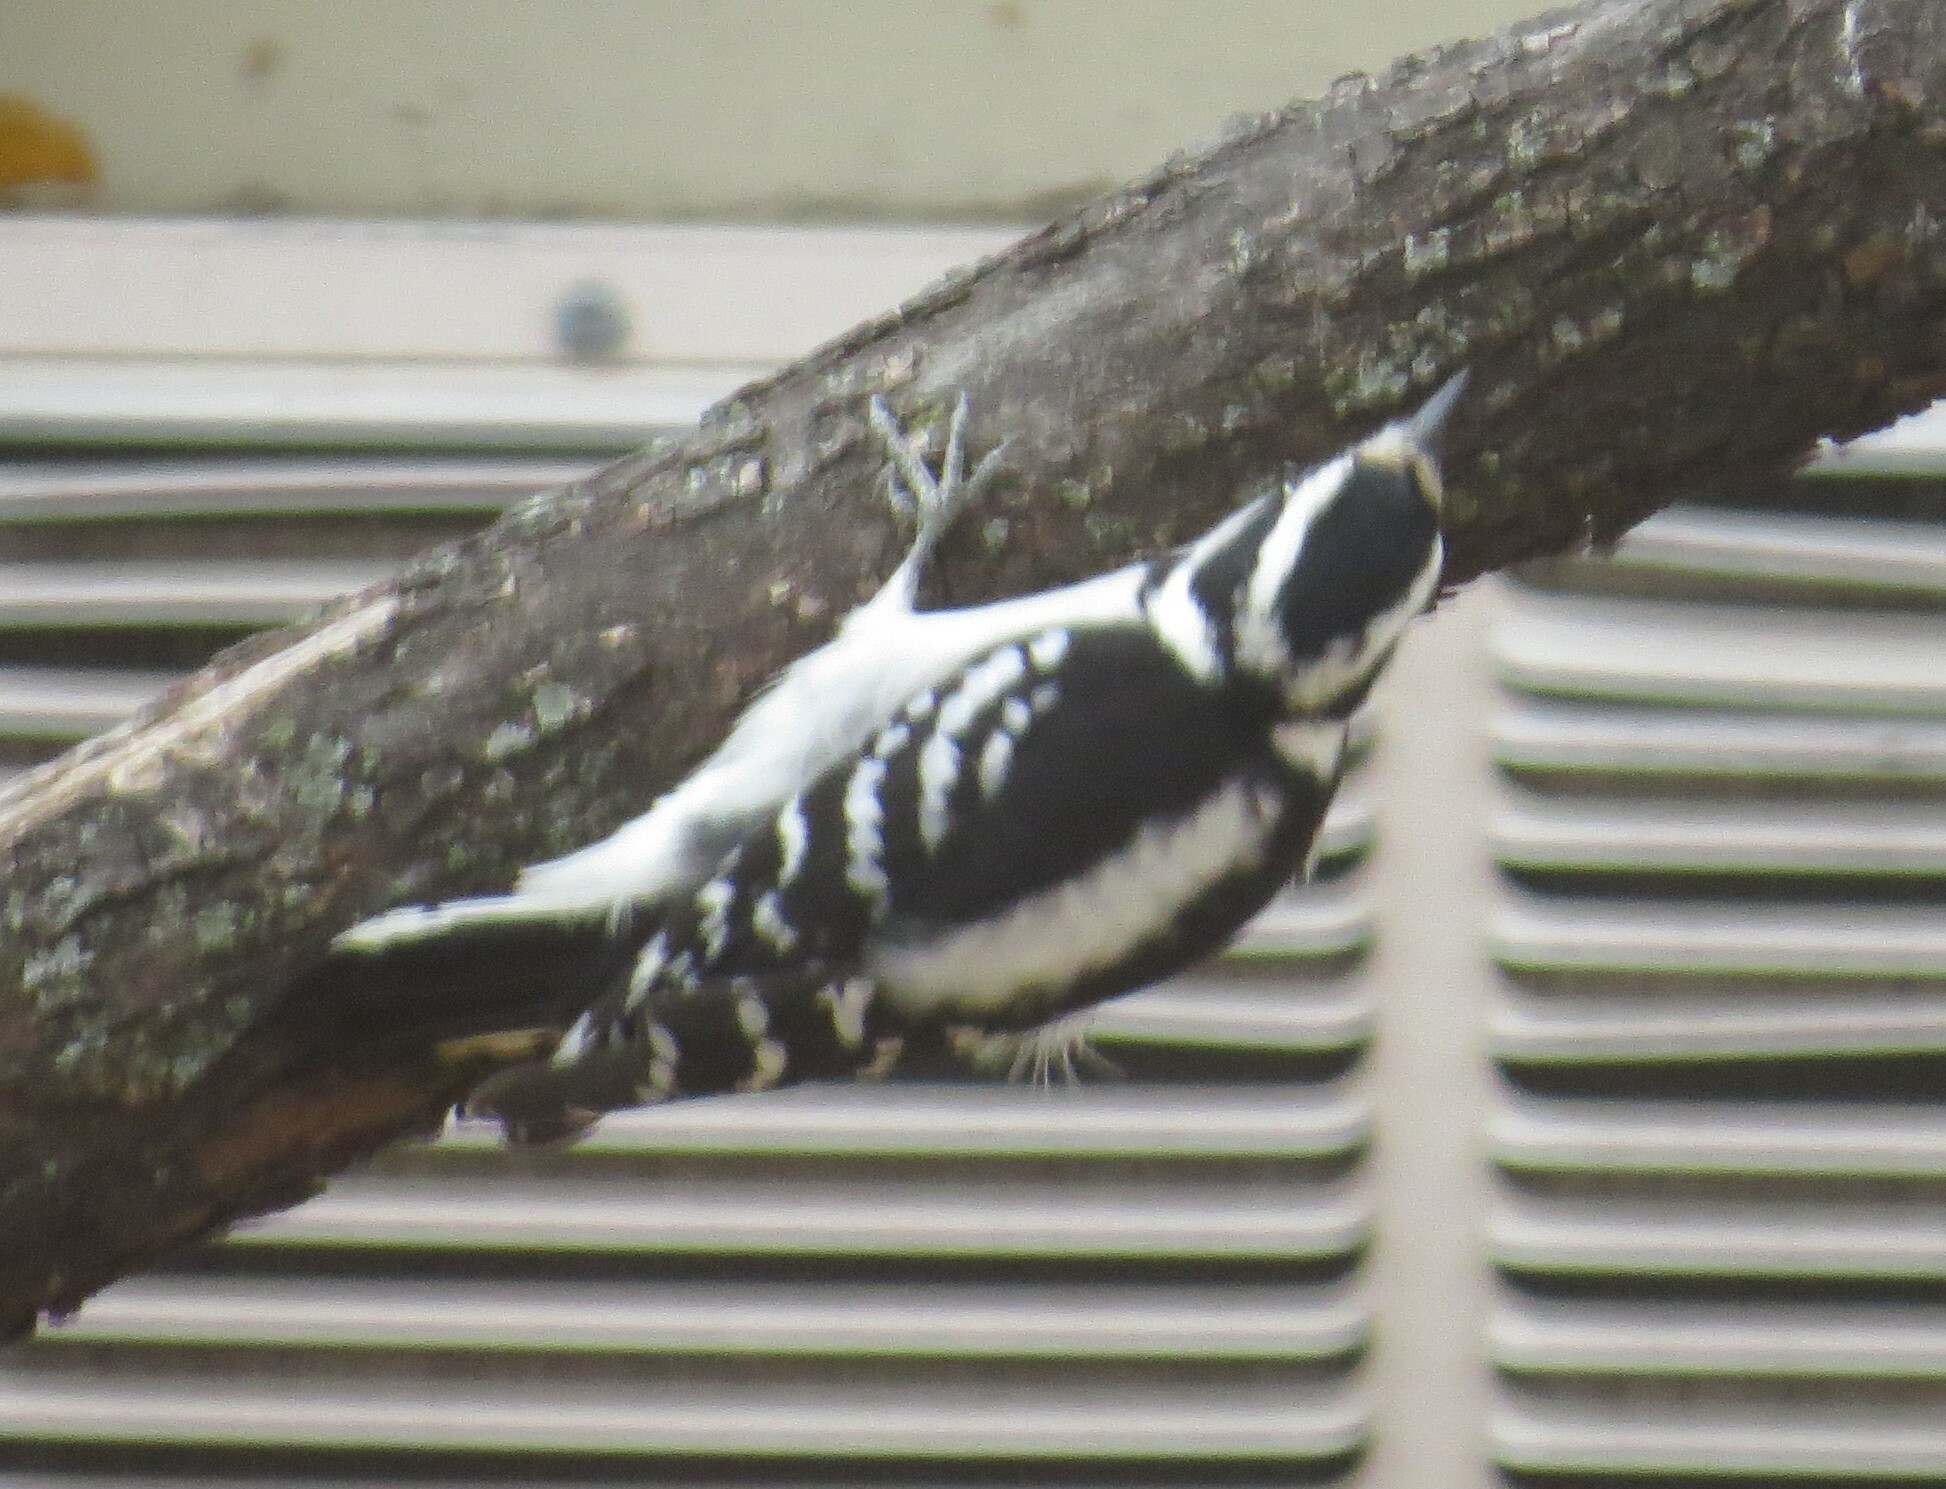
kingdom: Animalia
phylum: Chordata
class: Aves
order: Piciformes
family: Picidae
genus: Dryobates
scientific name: Dryobates pubescens
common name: Downy woodpecker
